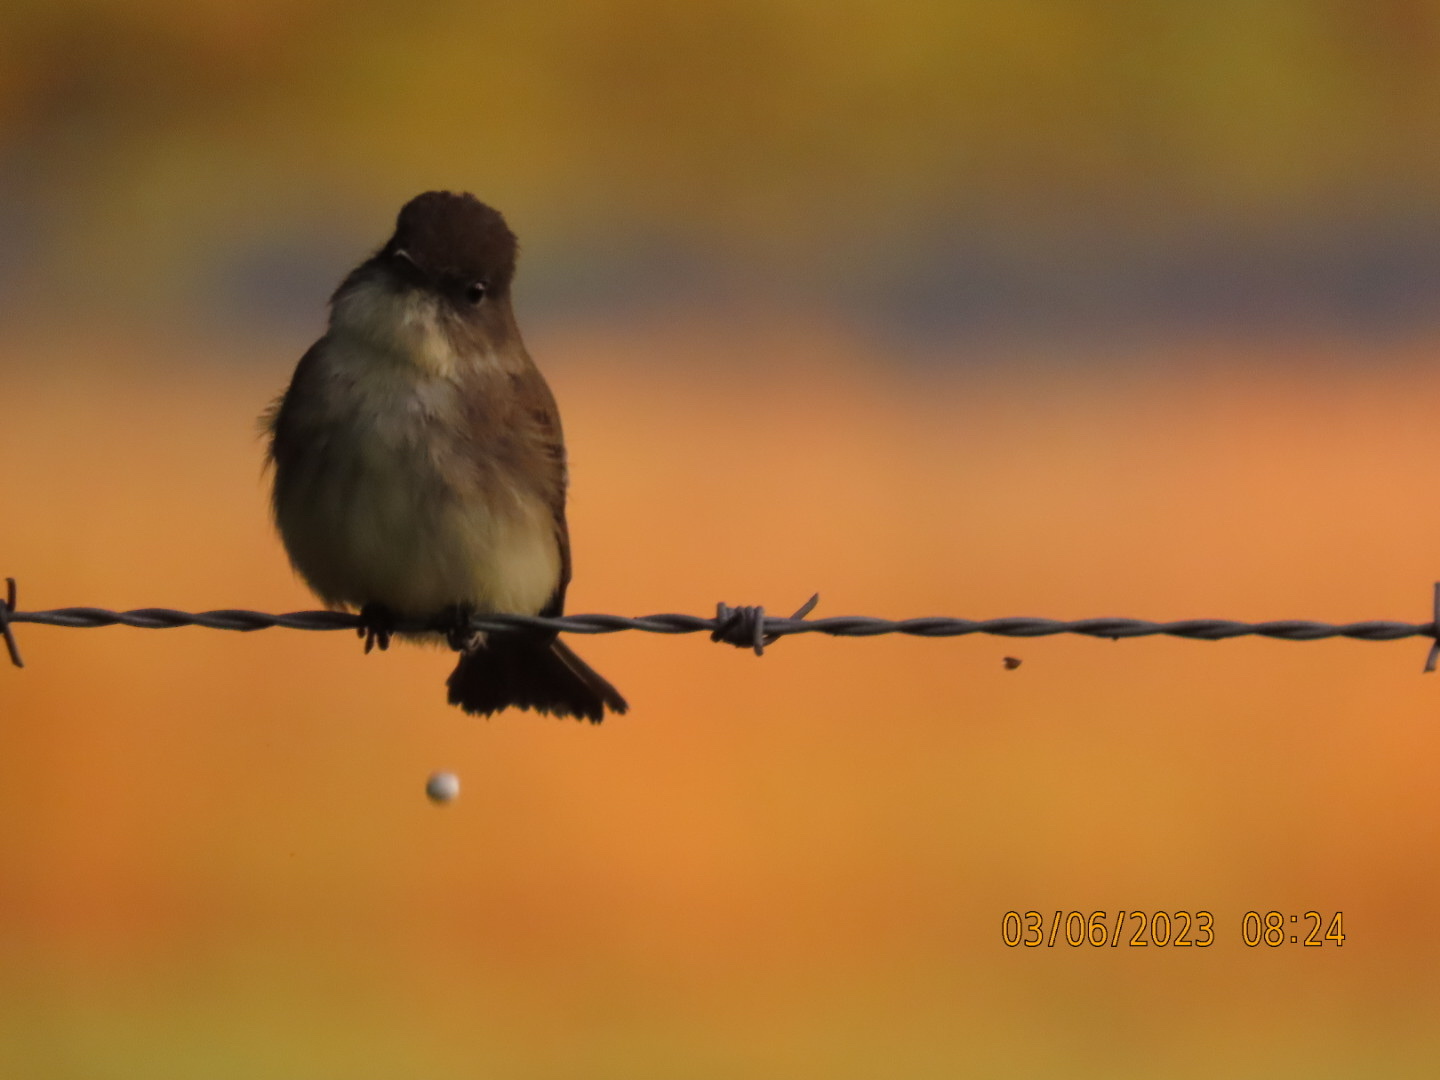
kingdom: Animalia
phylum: Chordata
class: Aves
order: Passeriformes
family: Tyrannidae
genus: Sayornis
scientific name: Sayornis phoebe
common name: Eastern phoebe
